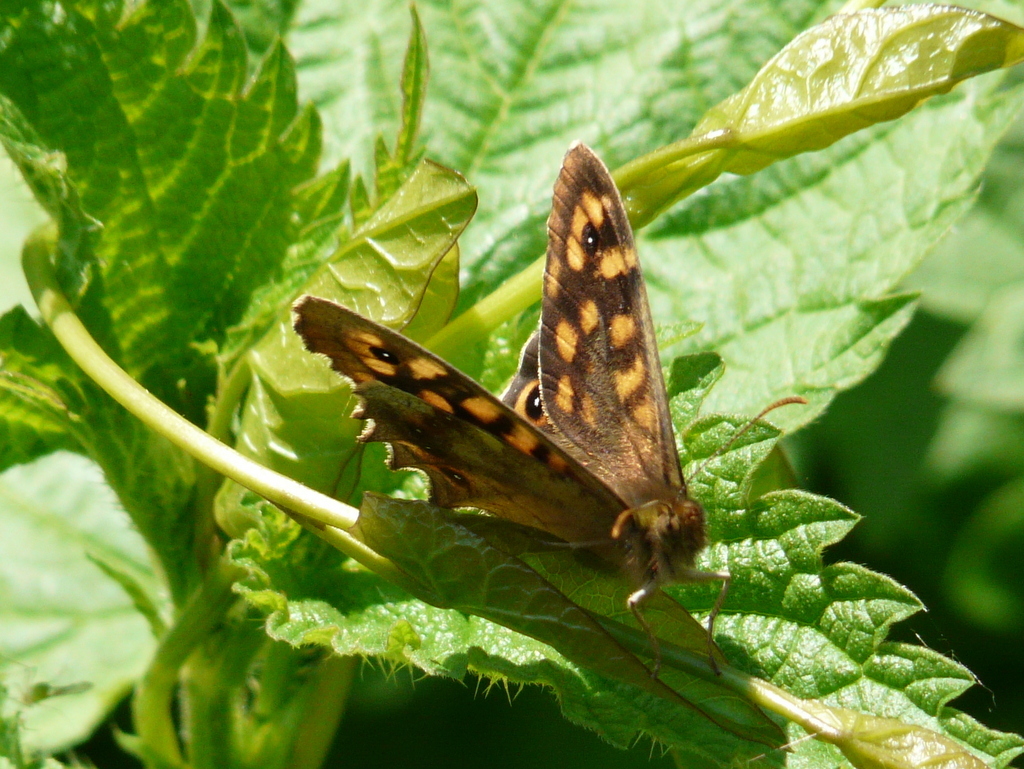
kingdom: Animalia
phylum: Arthropoda
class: Insecta
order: Lepidoptera
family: Nymphalidae
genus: Pararge
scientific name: Pararge aegeria
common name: Speckled wood
